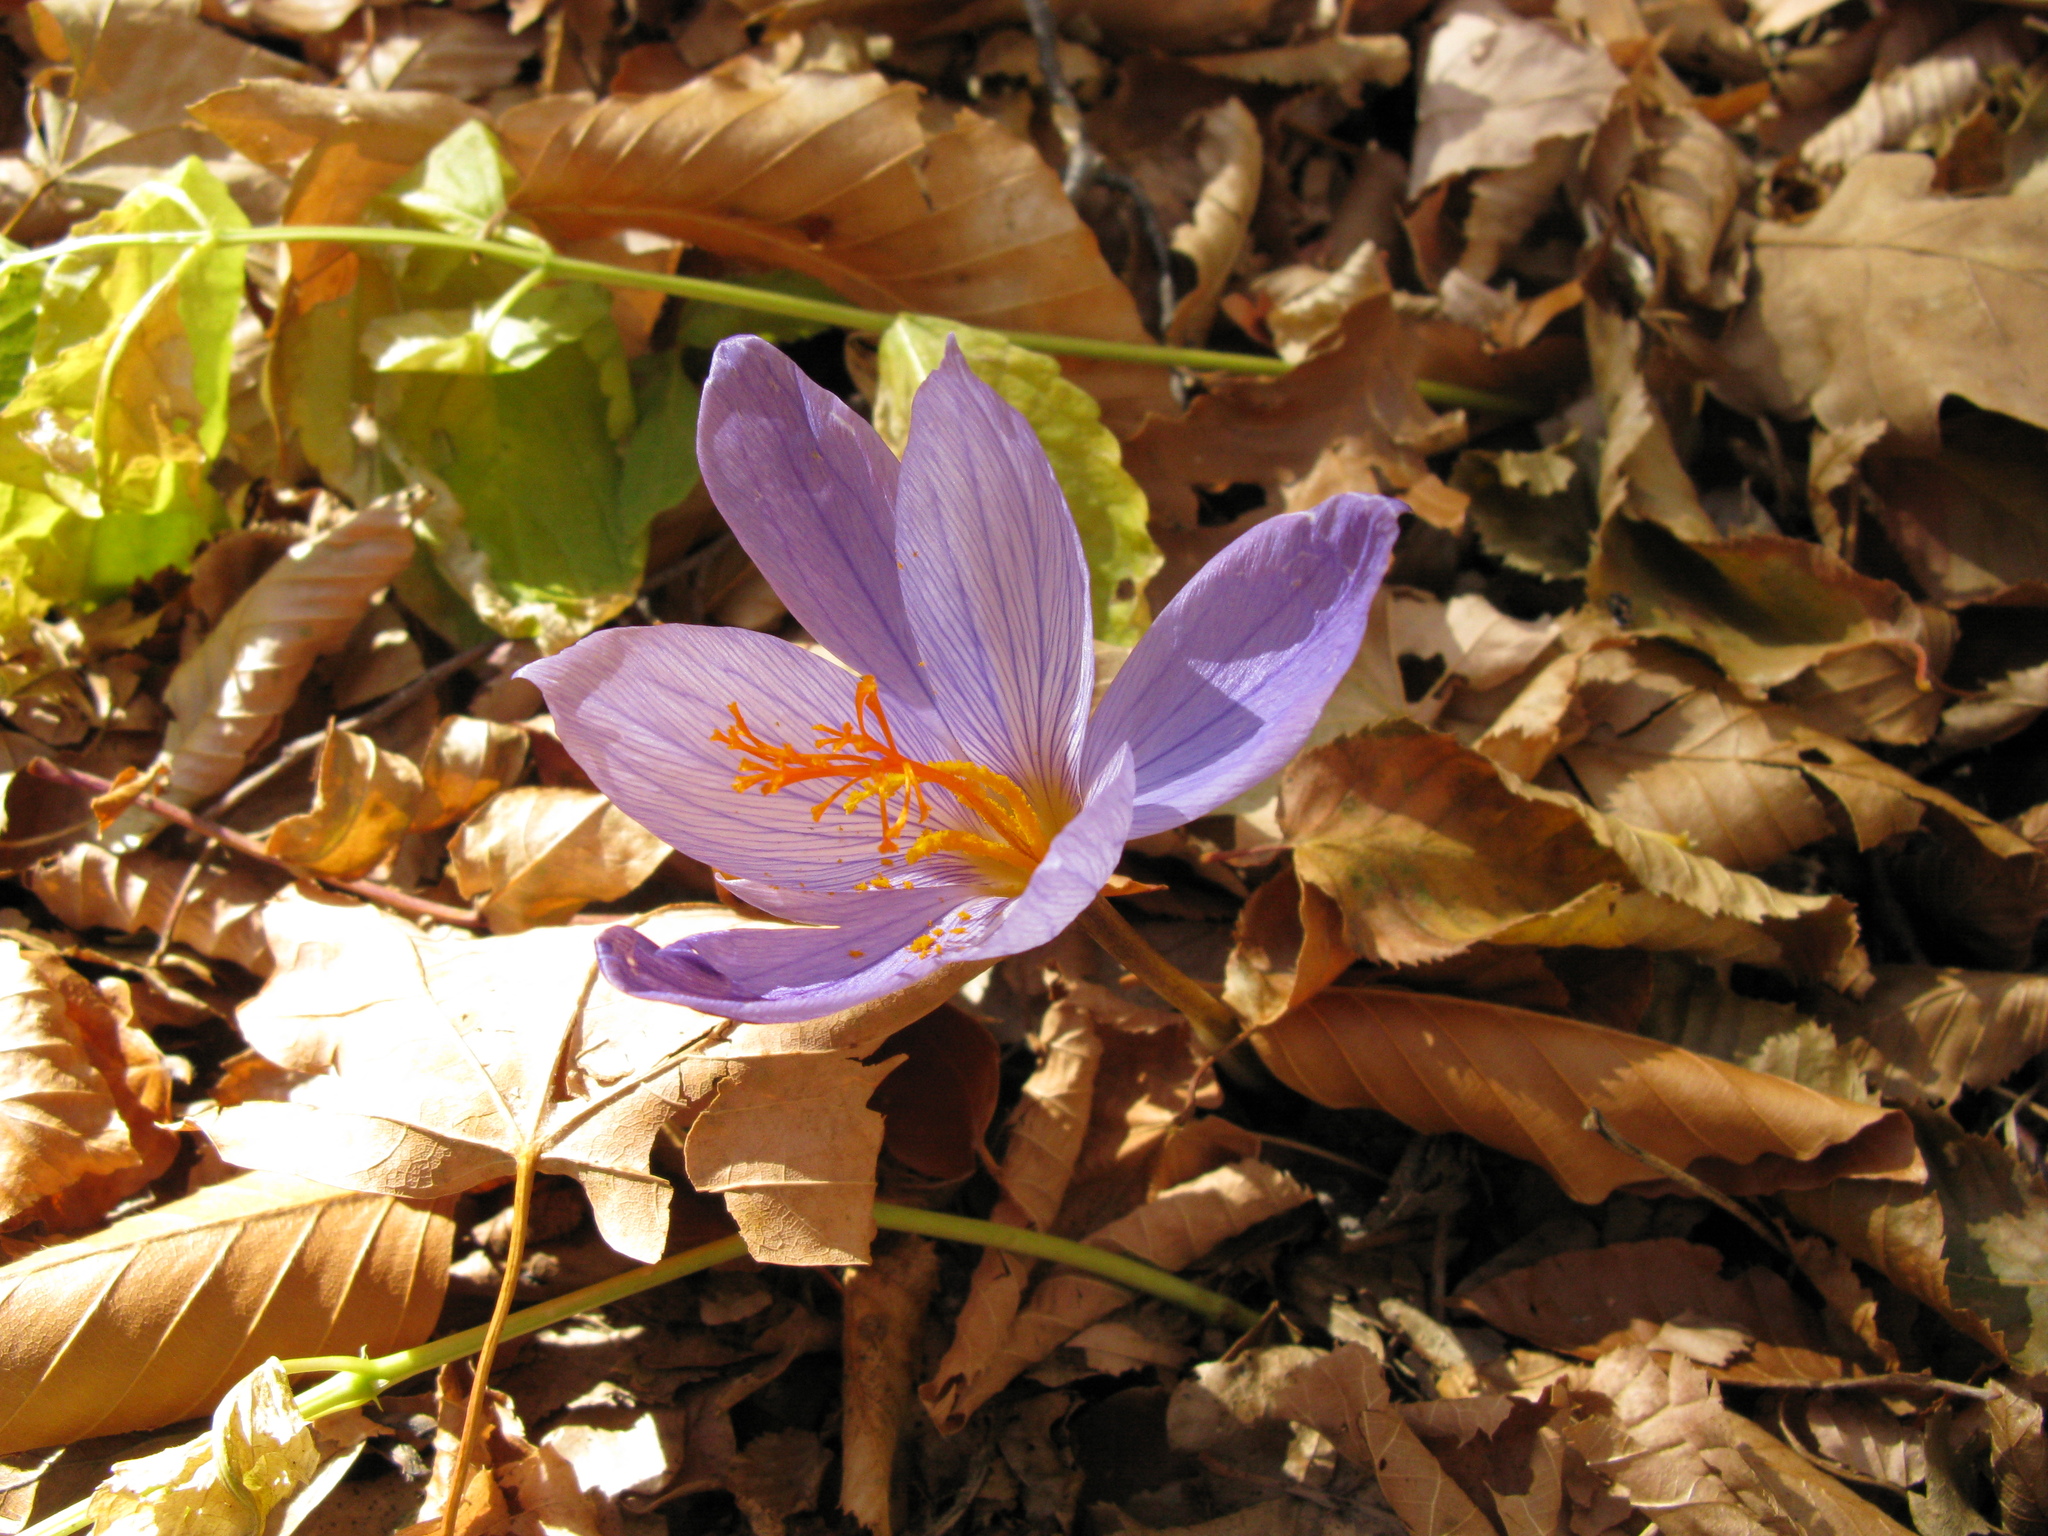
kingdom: Plantae
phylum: Tracheophyta
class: Liliopsida
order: Asparagales
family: Iridaceae
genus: Crocus
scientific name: Crocus speciosus
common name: Bieberstein's crocus
